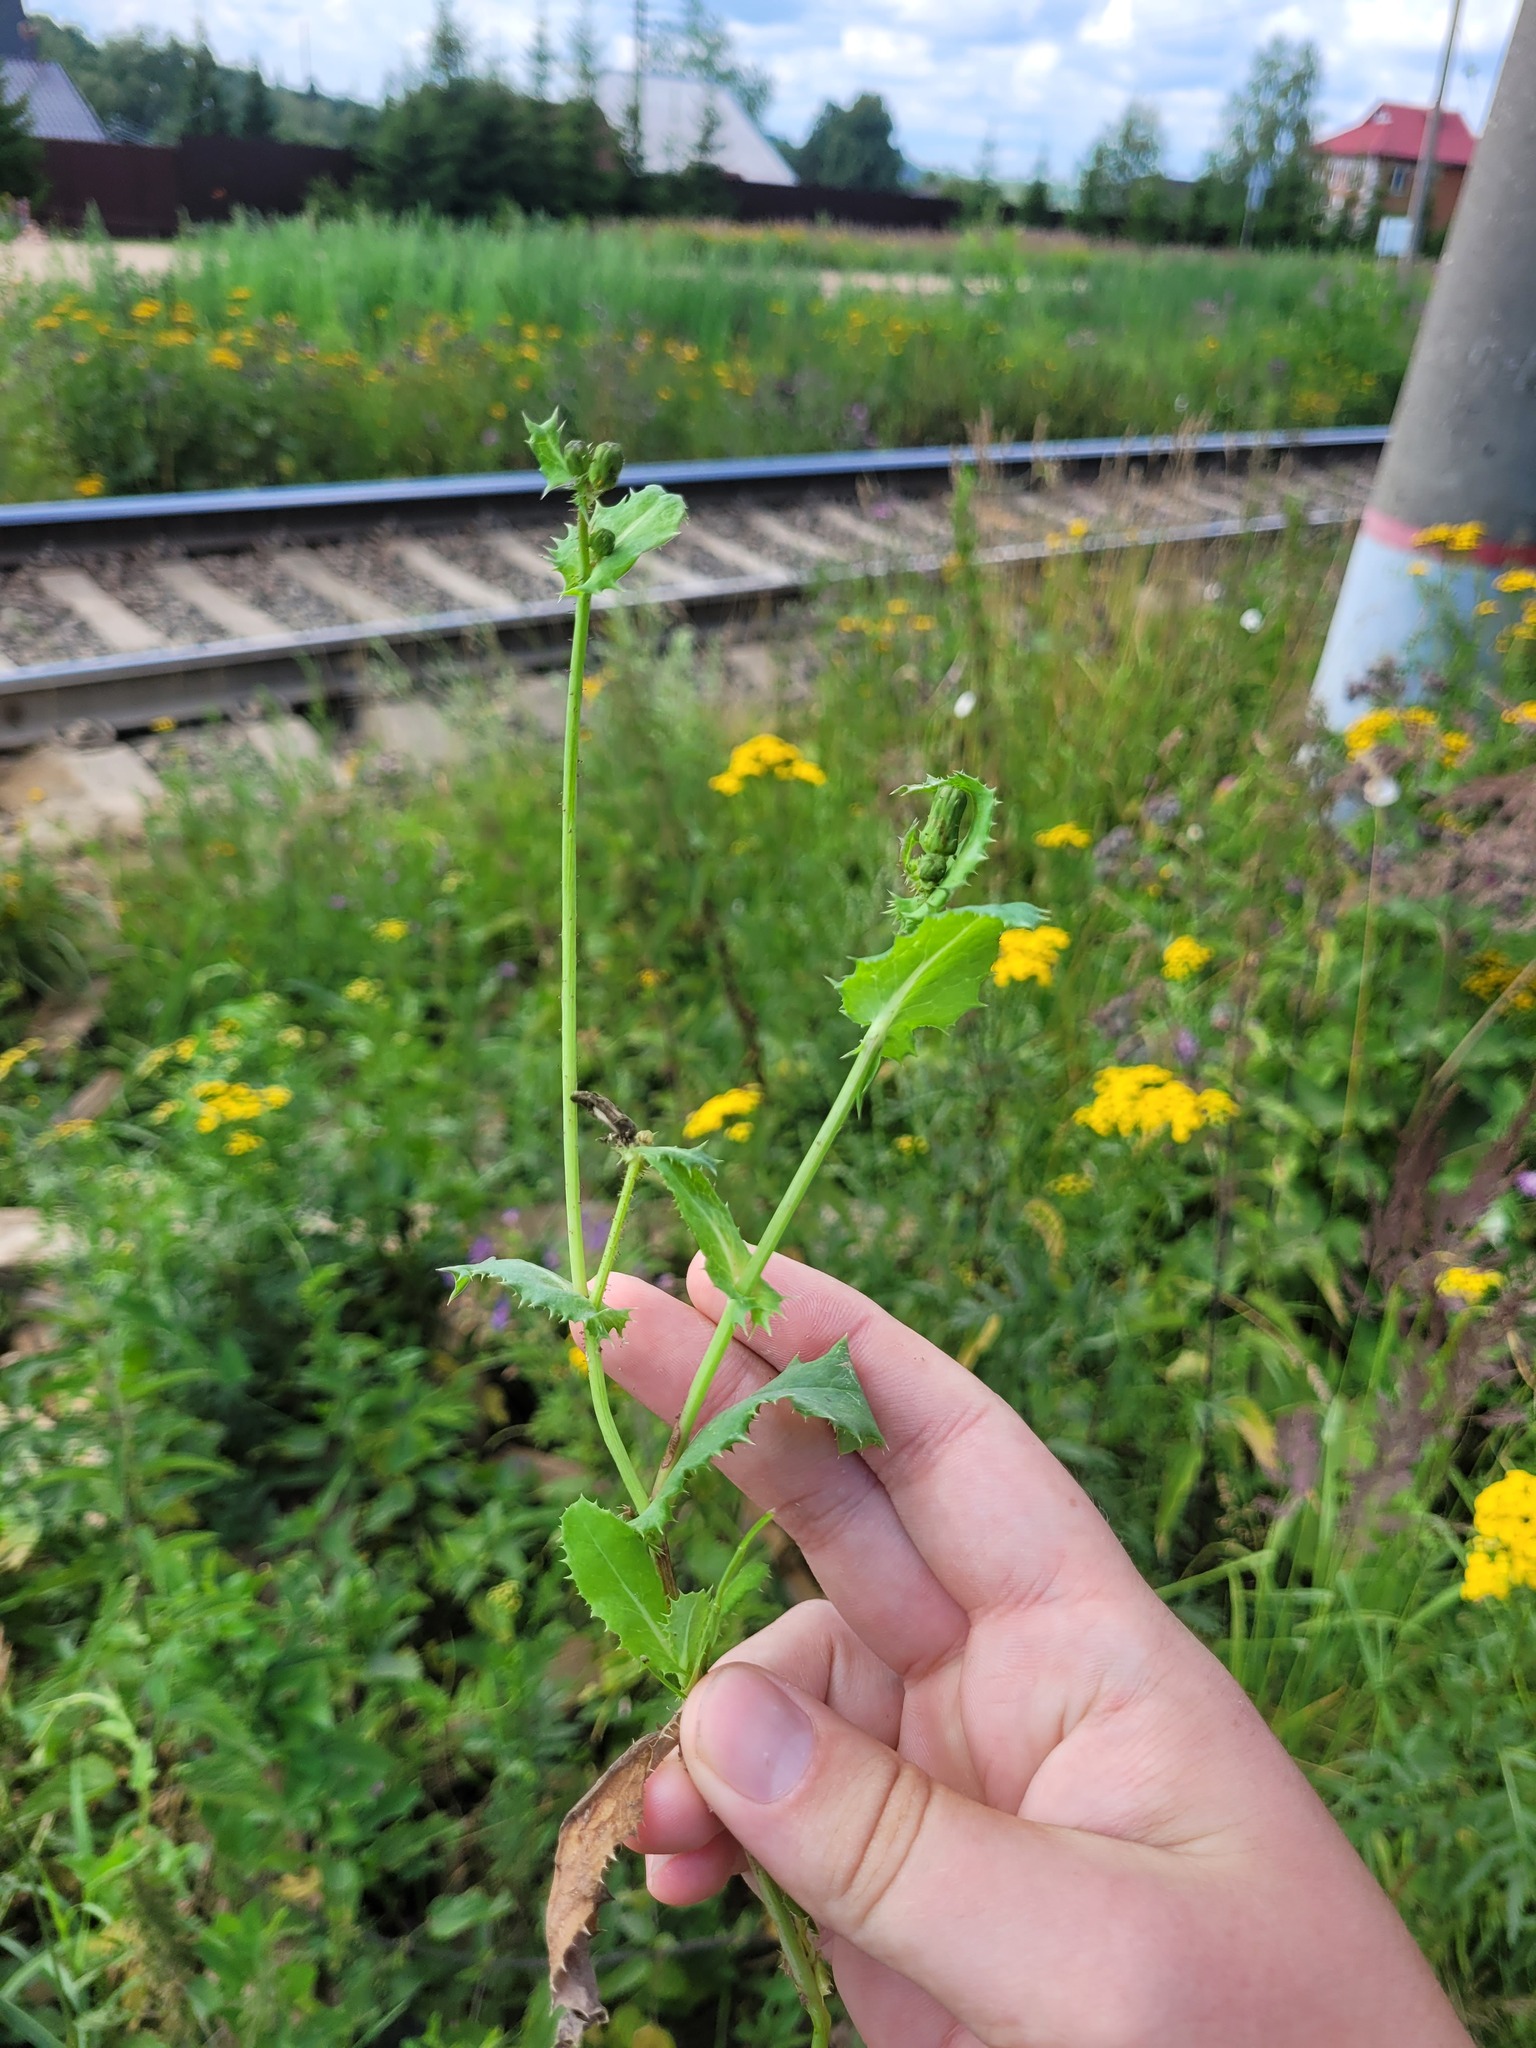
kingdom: Plantae
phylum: Tracheophyta
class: Magnoliopsida
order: Asterales
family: Asteraceae
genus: Sonchus
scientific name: Sonchus asper
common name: Prickly sow-thistle
